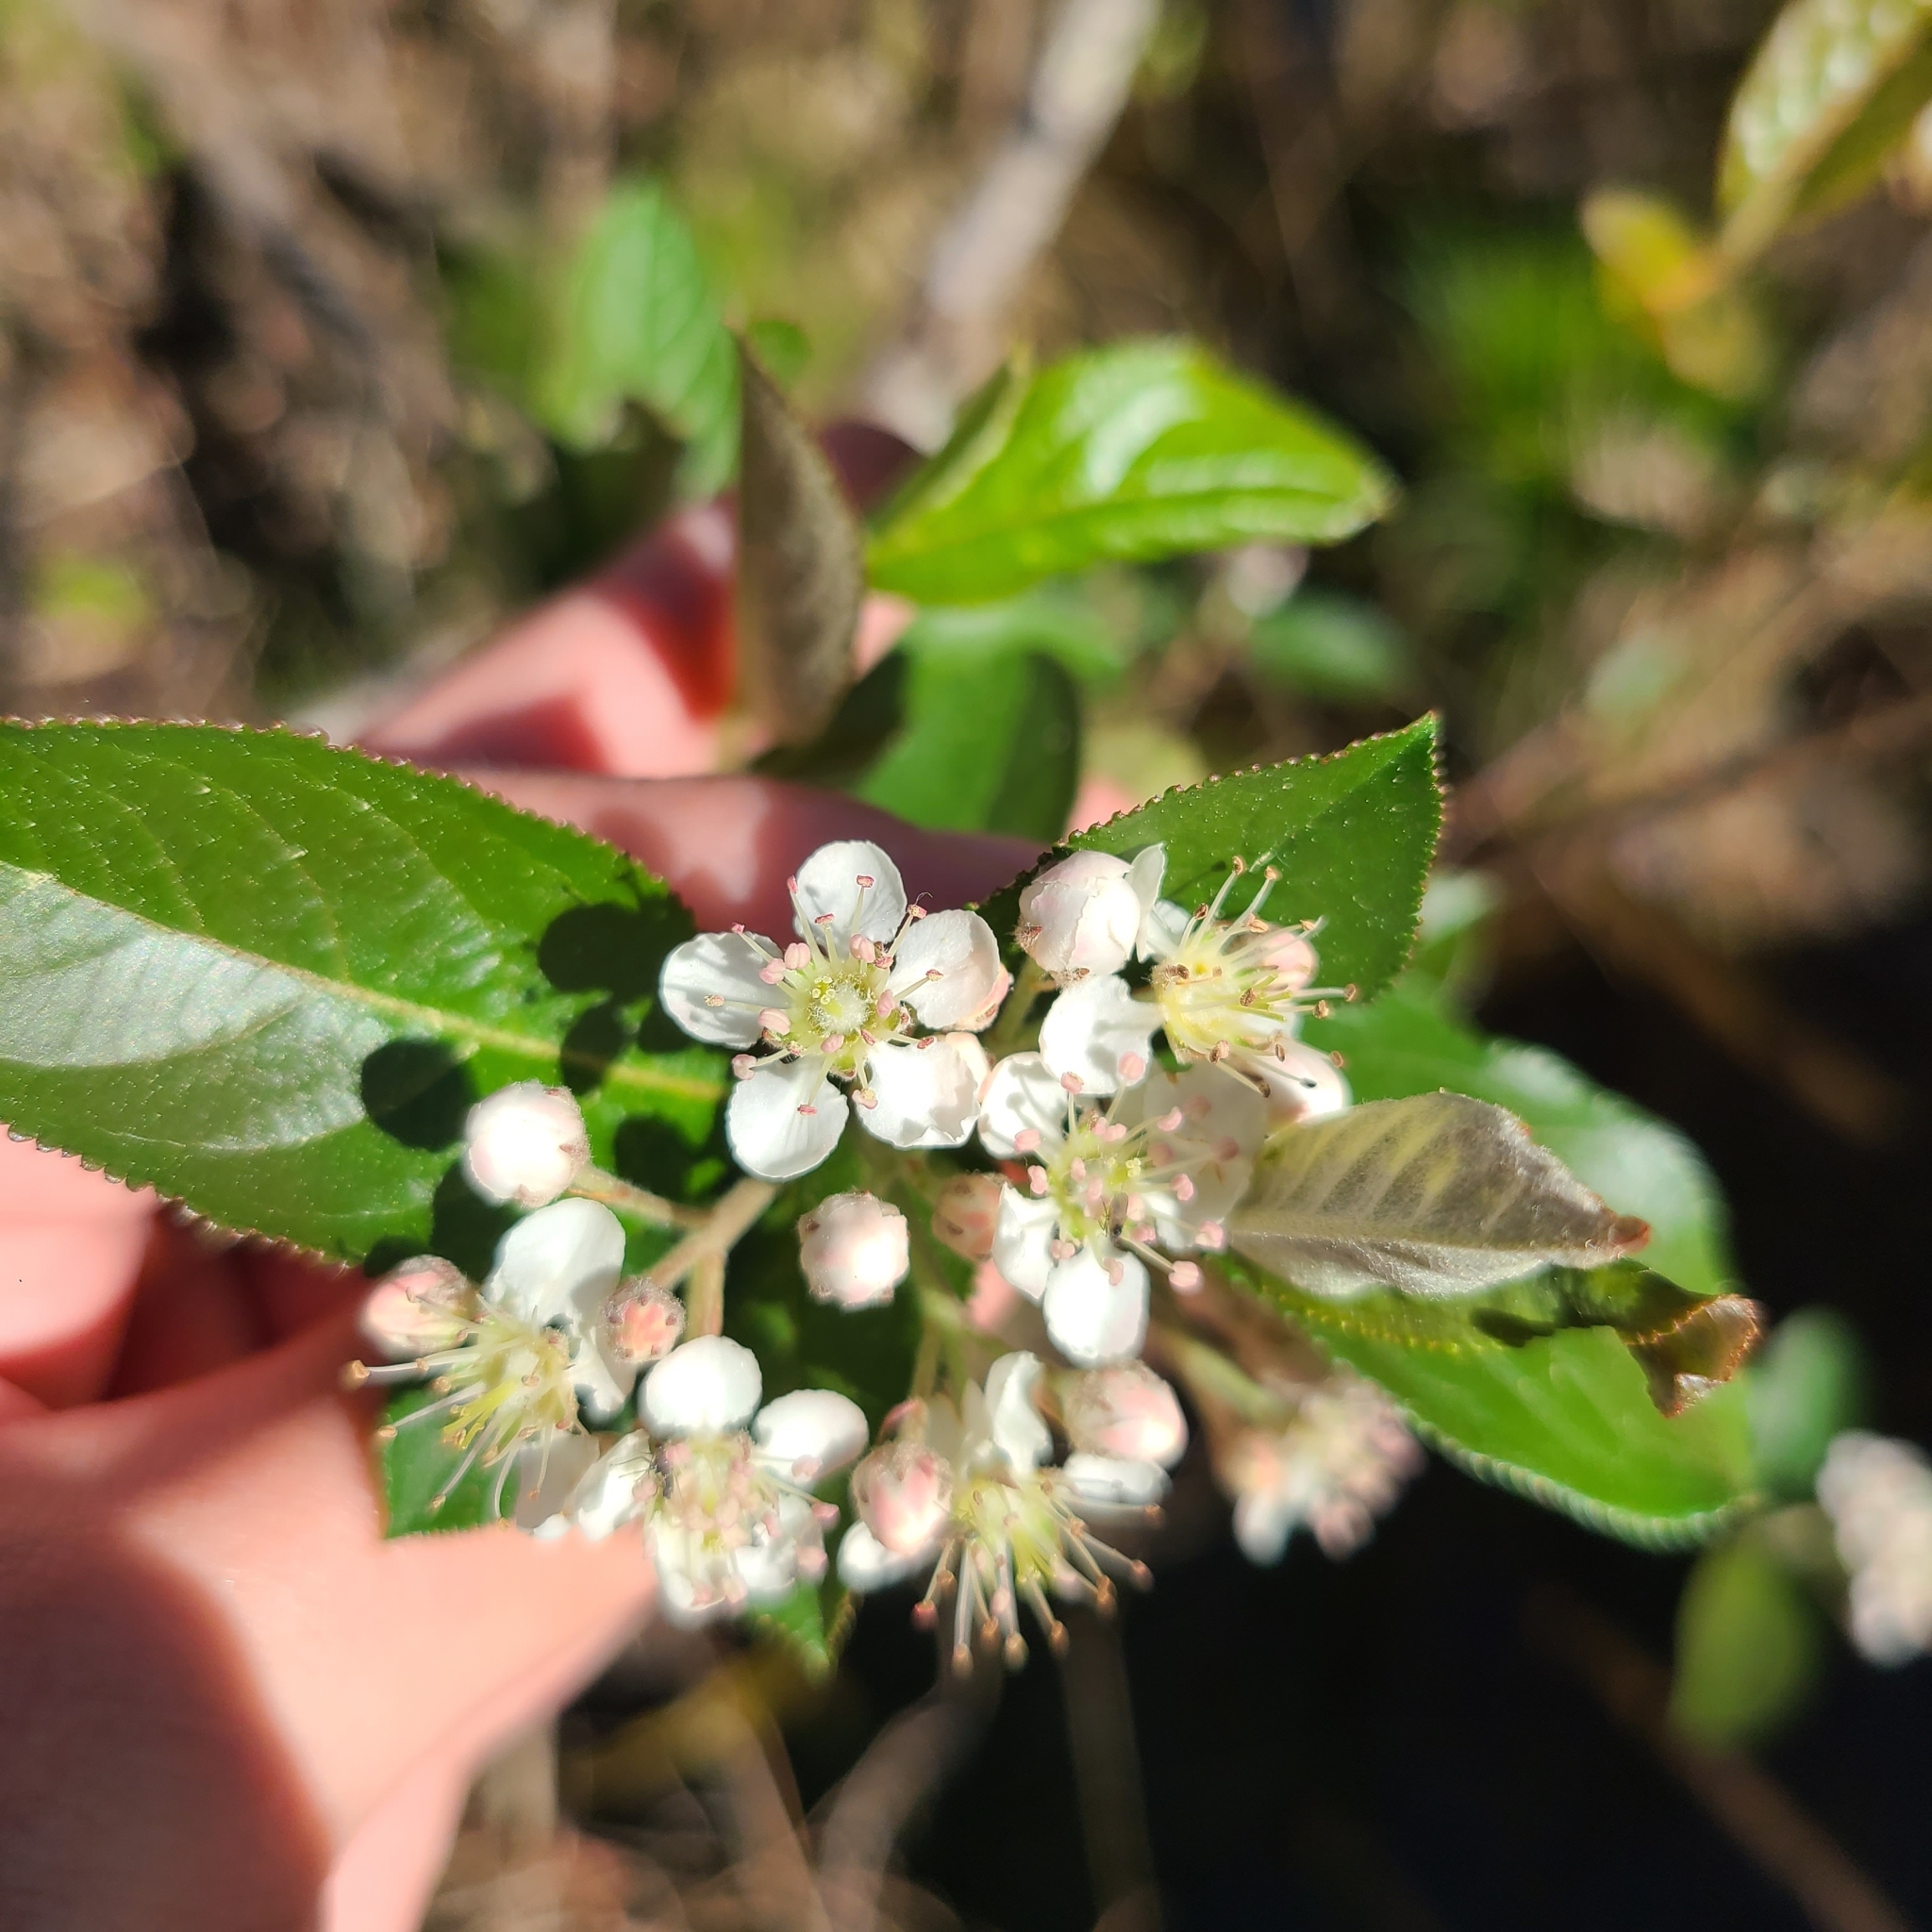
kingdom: Plantae
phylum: Tracheophyta
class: Magnoliopsida
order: Rosales
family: Rosaceae
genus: Aronia
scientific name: Aronia arbutifolia
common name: Red chokeberry
